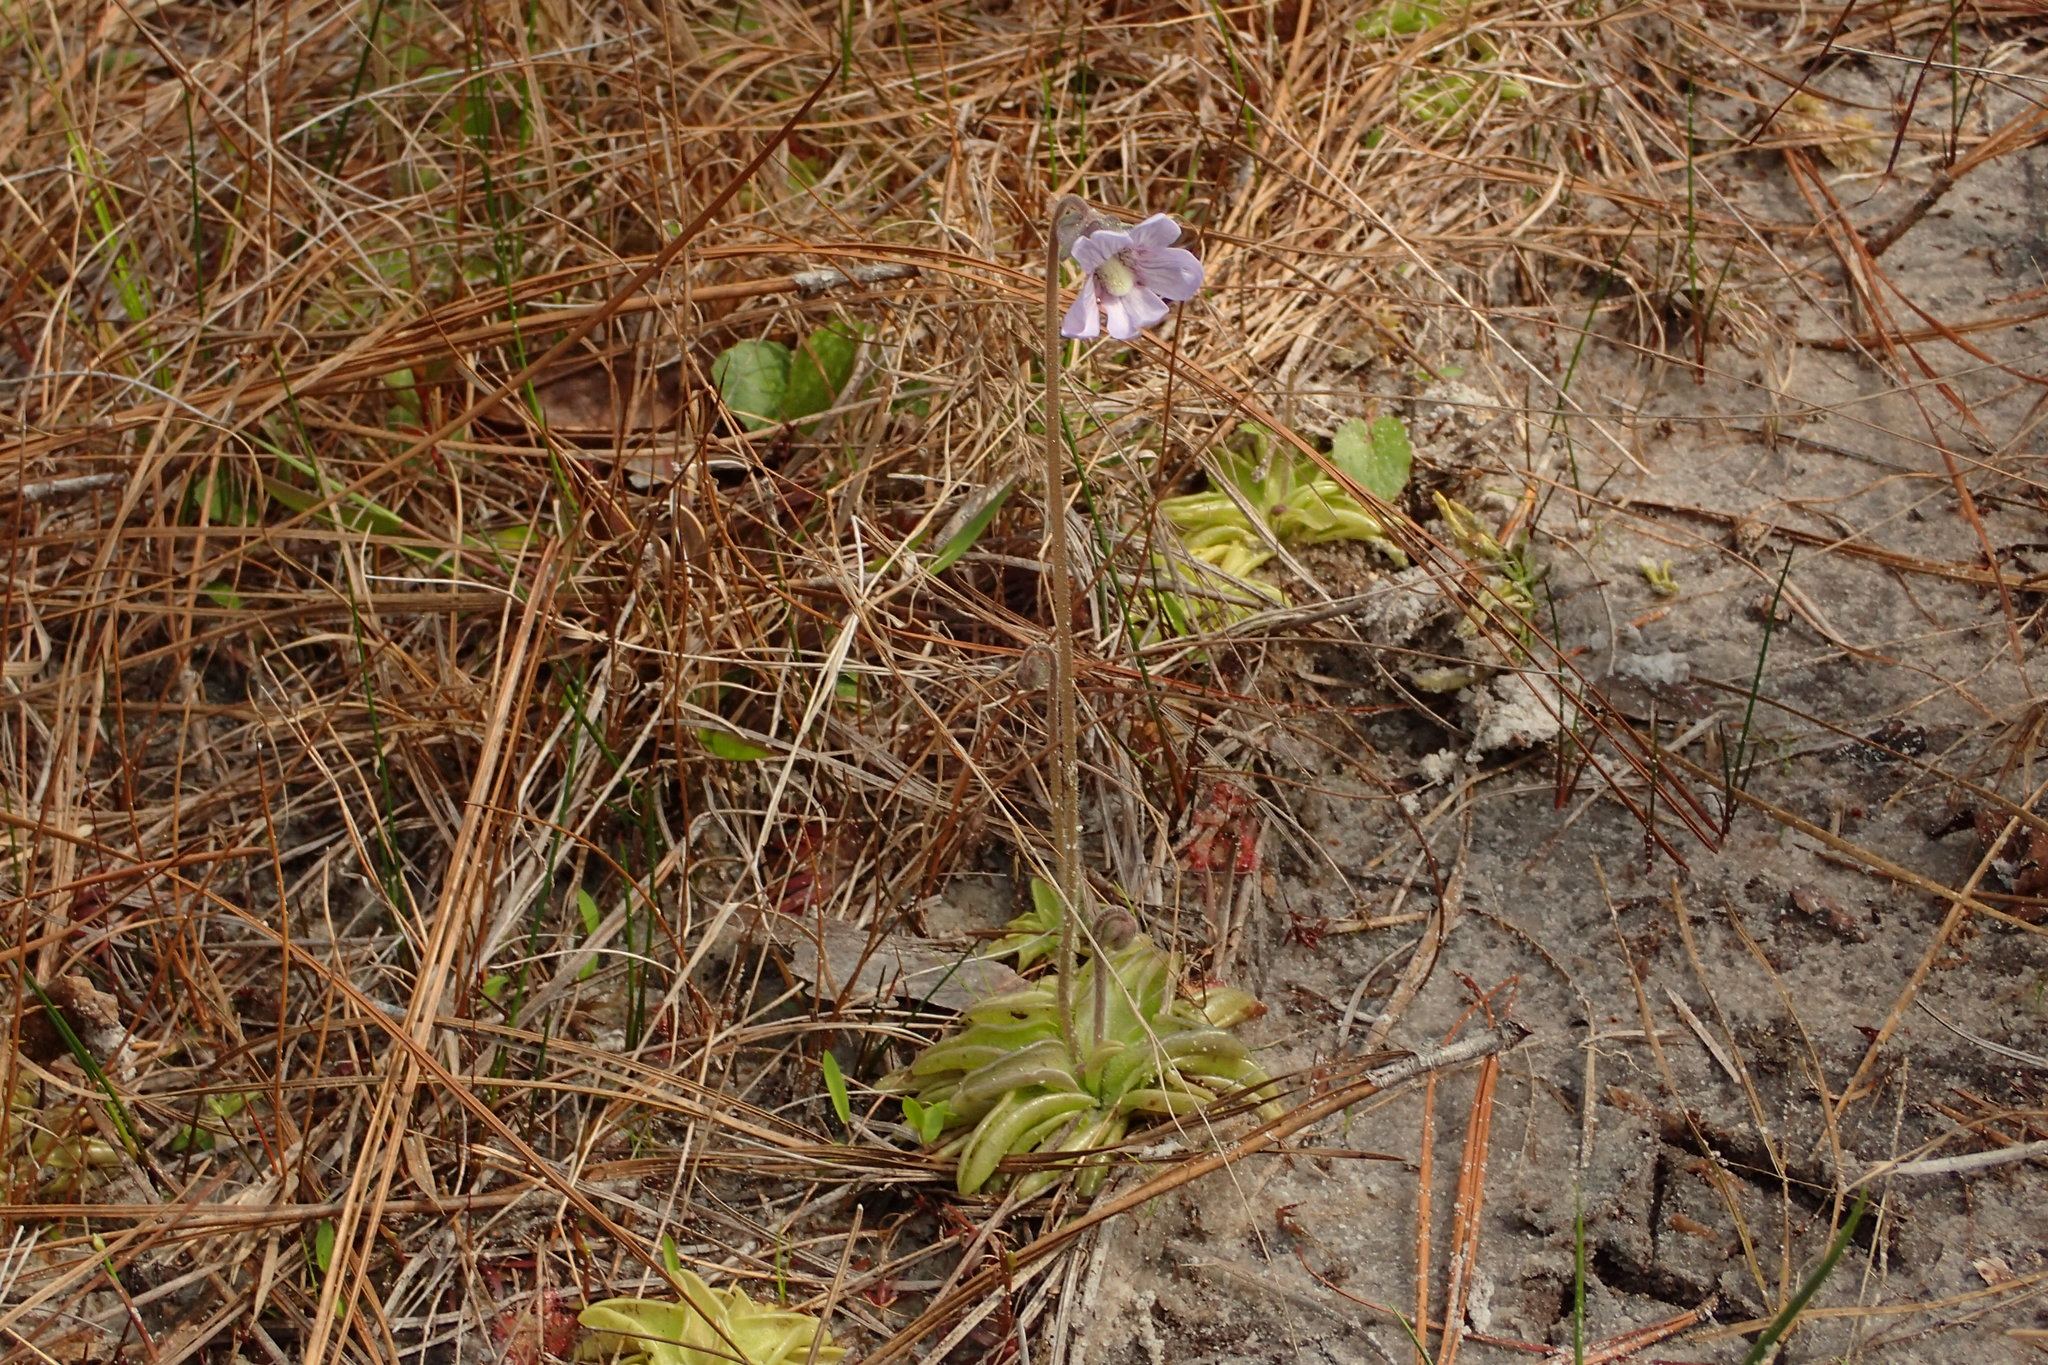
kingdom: Plantae
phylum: Tracheophyta
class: Magnoliopsida
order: Lamiales
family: Lentibulariaceae
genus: Pinguicula
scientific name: Pinguicula caerulea
